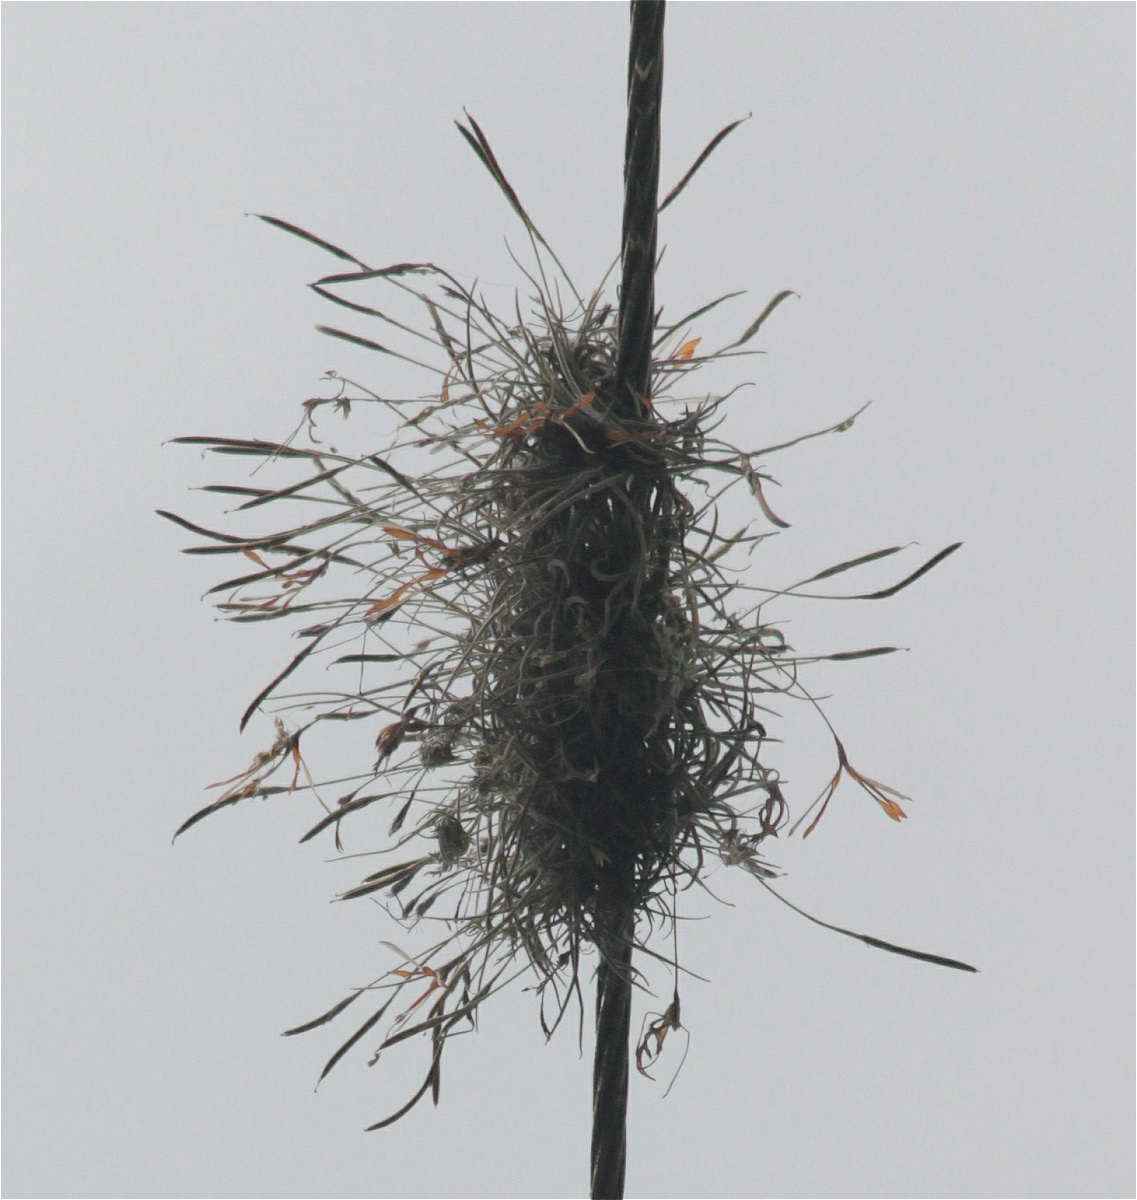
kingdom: Plantae
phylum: Tracheophyta
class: Liliopsida
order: Poales
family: Bromeliaceae
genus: Tillandsia
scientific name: Tillandsia recurvata
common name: Small ballmoss
